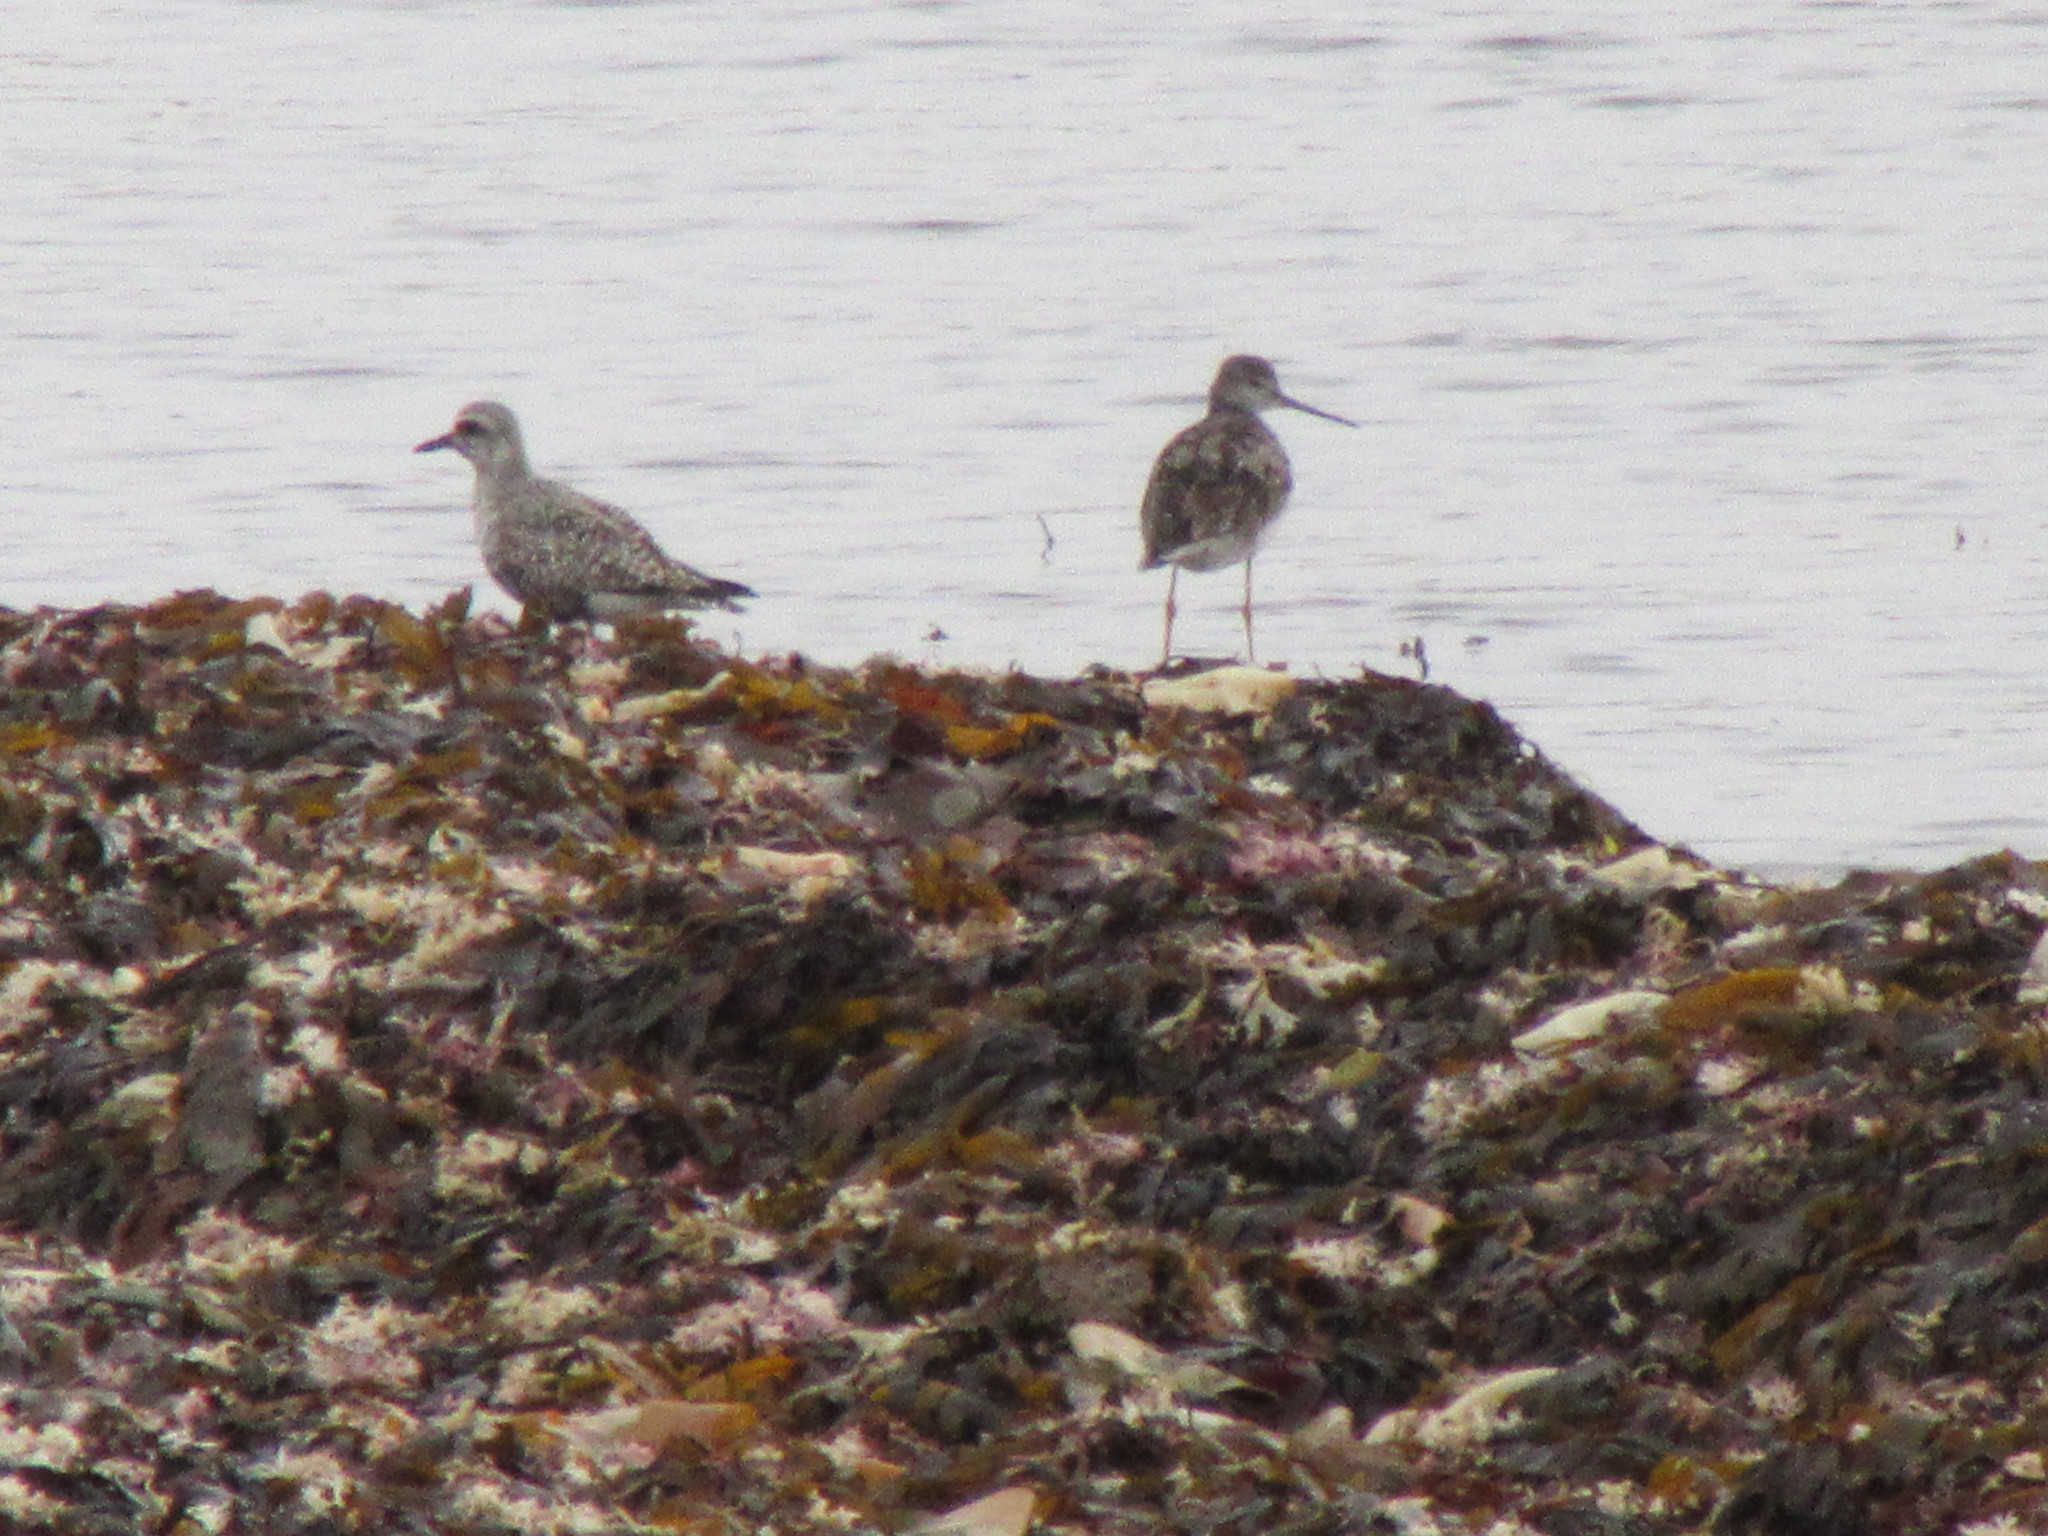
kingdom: Animalia
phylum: Chordata
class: Aves
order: Charadriiformes
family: Scolopacidae
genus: Tringa
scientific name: Tringa melanoleuca
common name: Greater yellowlegs
